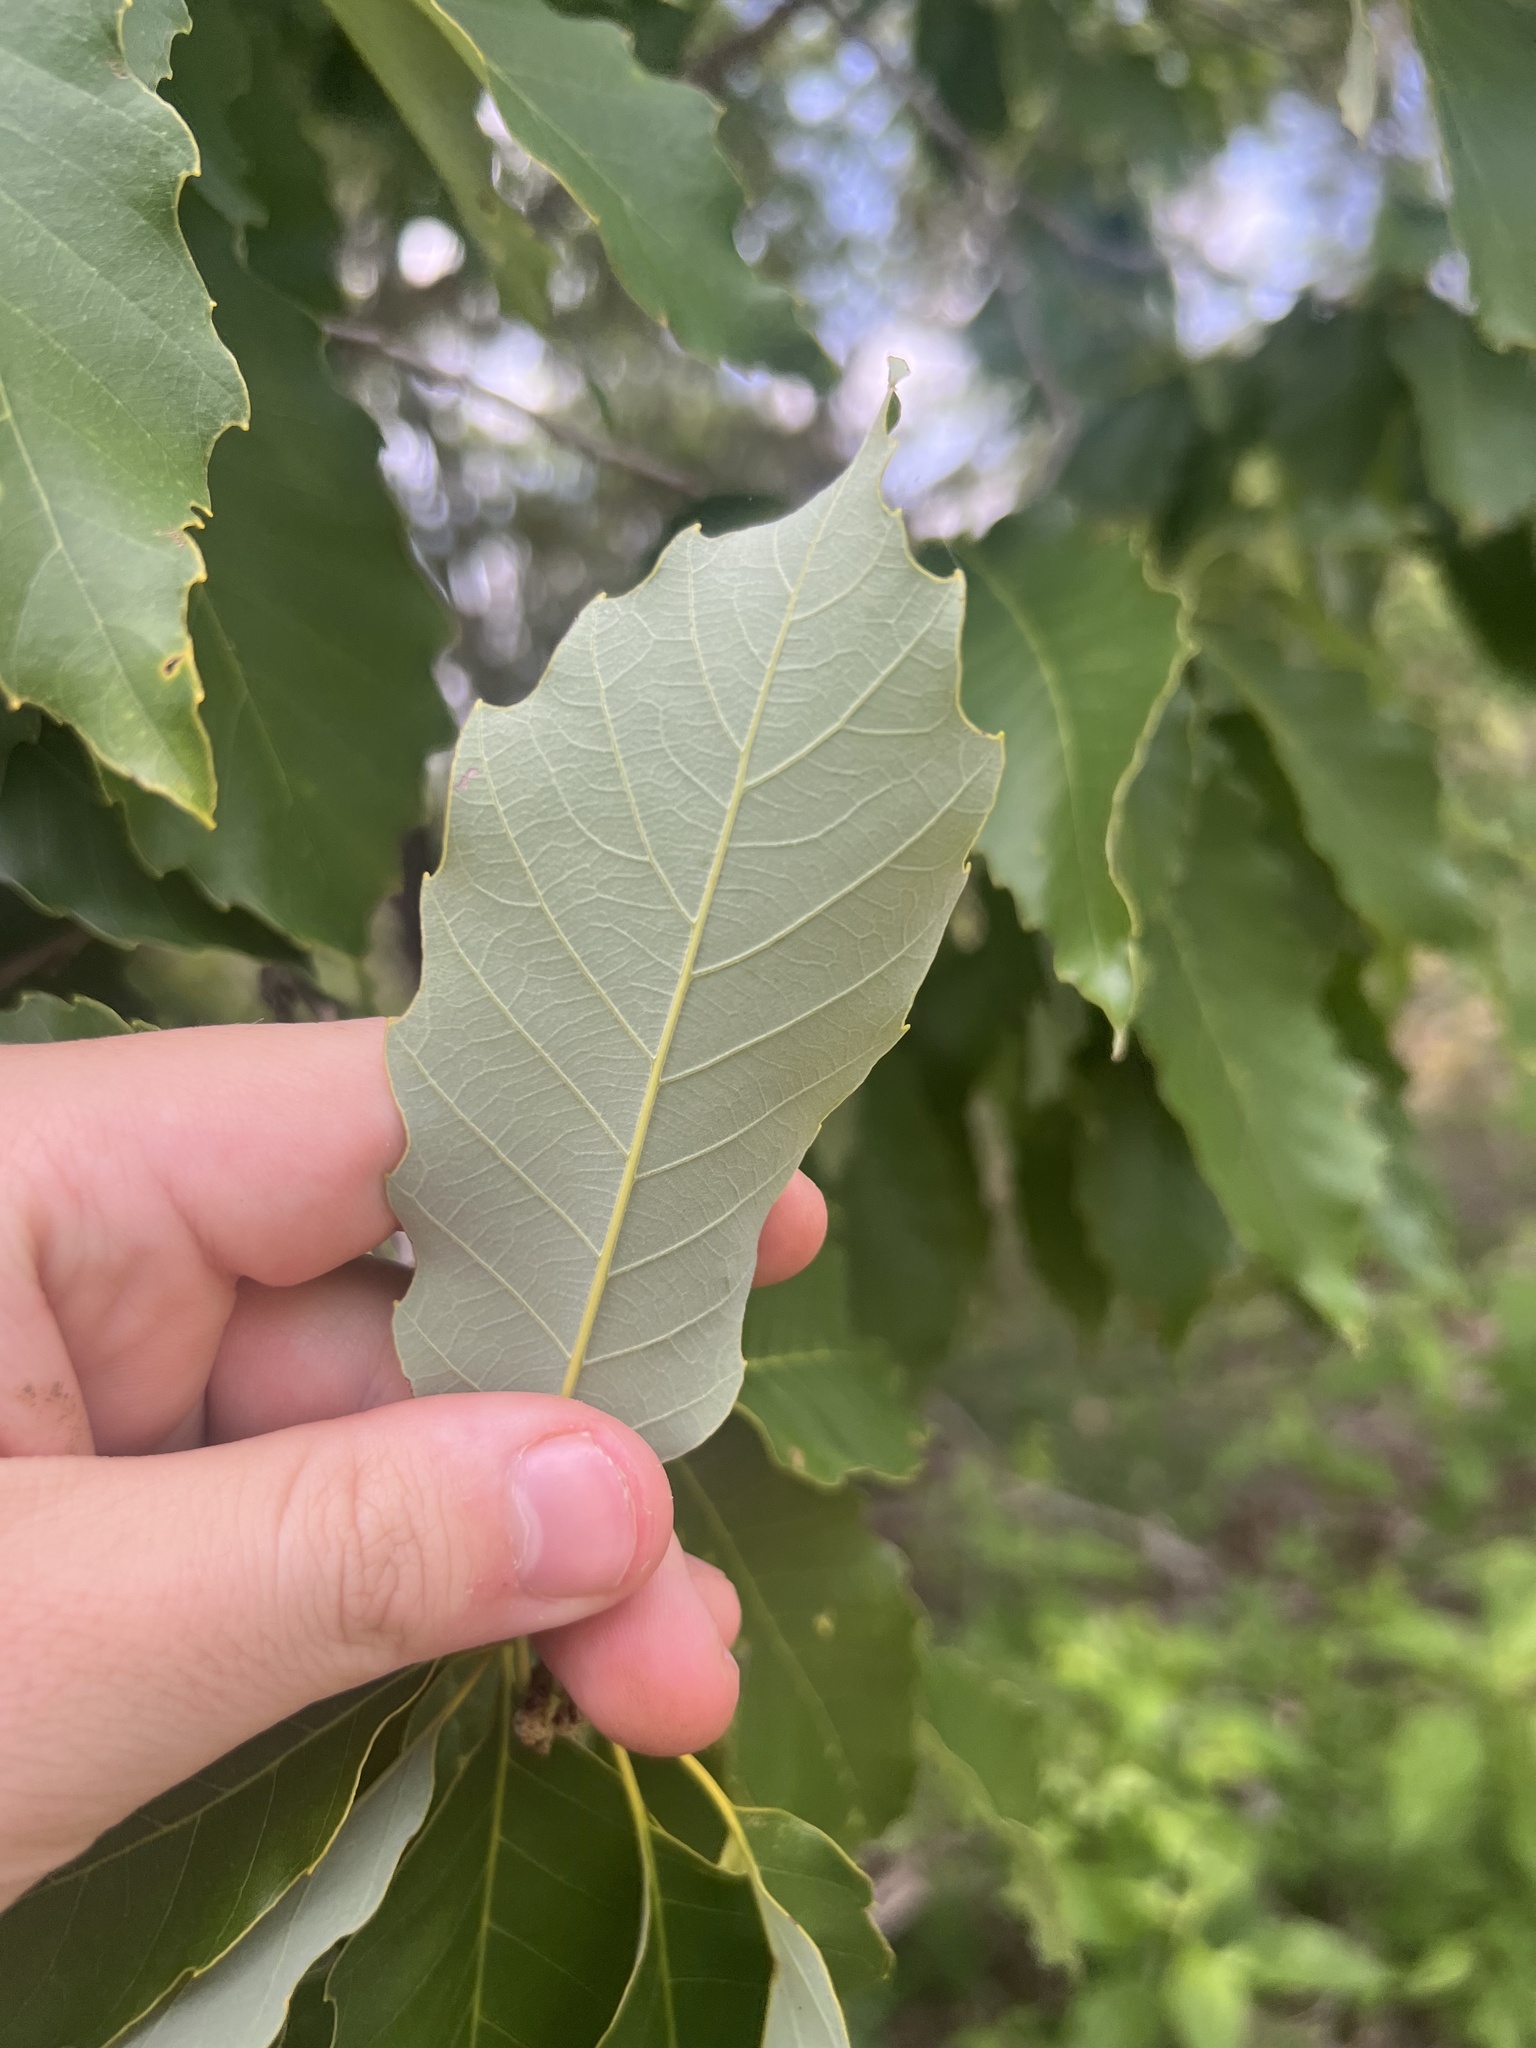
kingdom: Plantae
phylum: Tracheophyta
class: Magnoliopsida
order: Fagales
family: Fagaceae
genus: Quercus
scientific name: Quercus muehlenbergii
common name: Chinkapin oak
